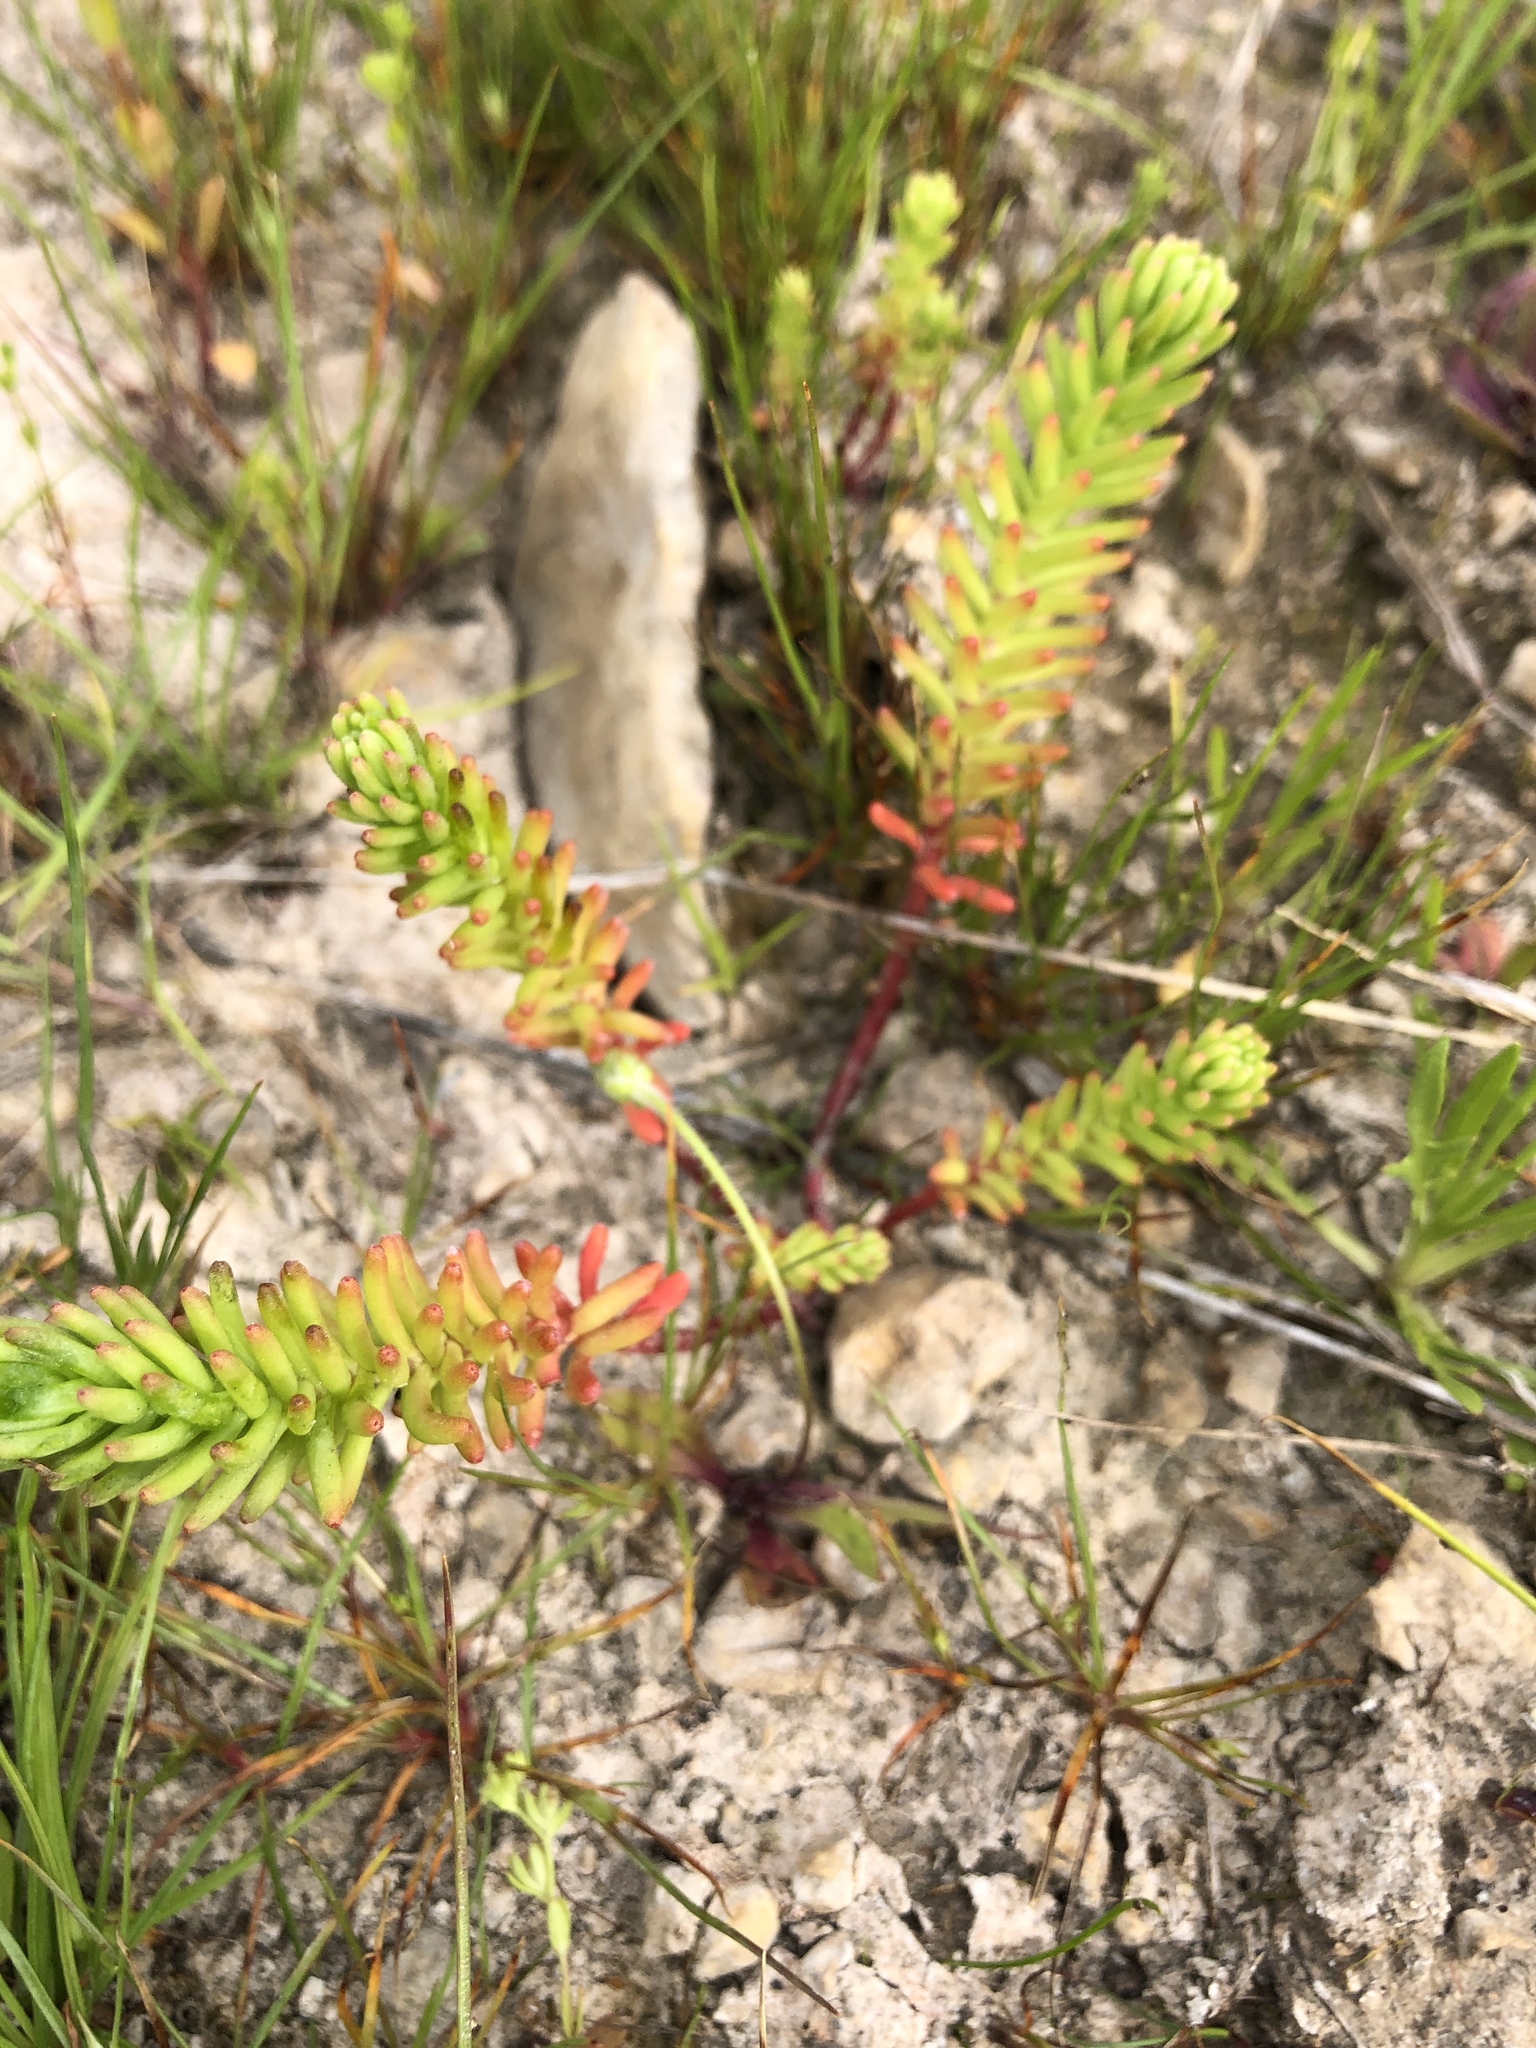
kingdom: Plantae
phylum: Tracheophyta
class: Magnoliopsida
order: Saxifragales
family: Crassulaceae
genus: Sedum
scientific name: Sedum pulchellum
